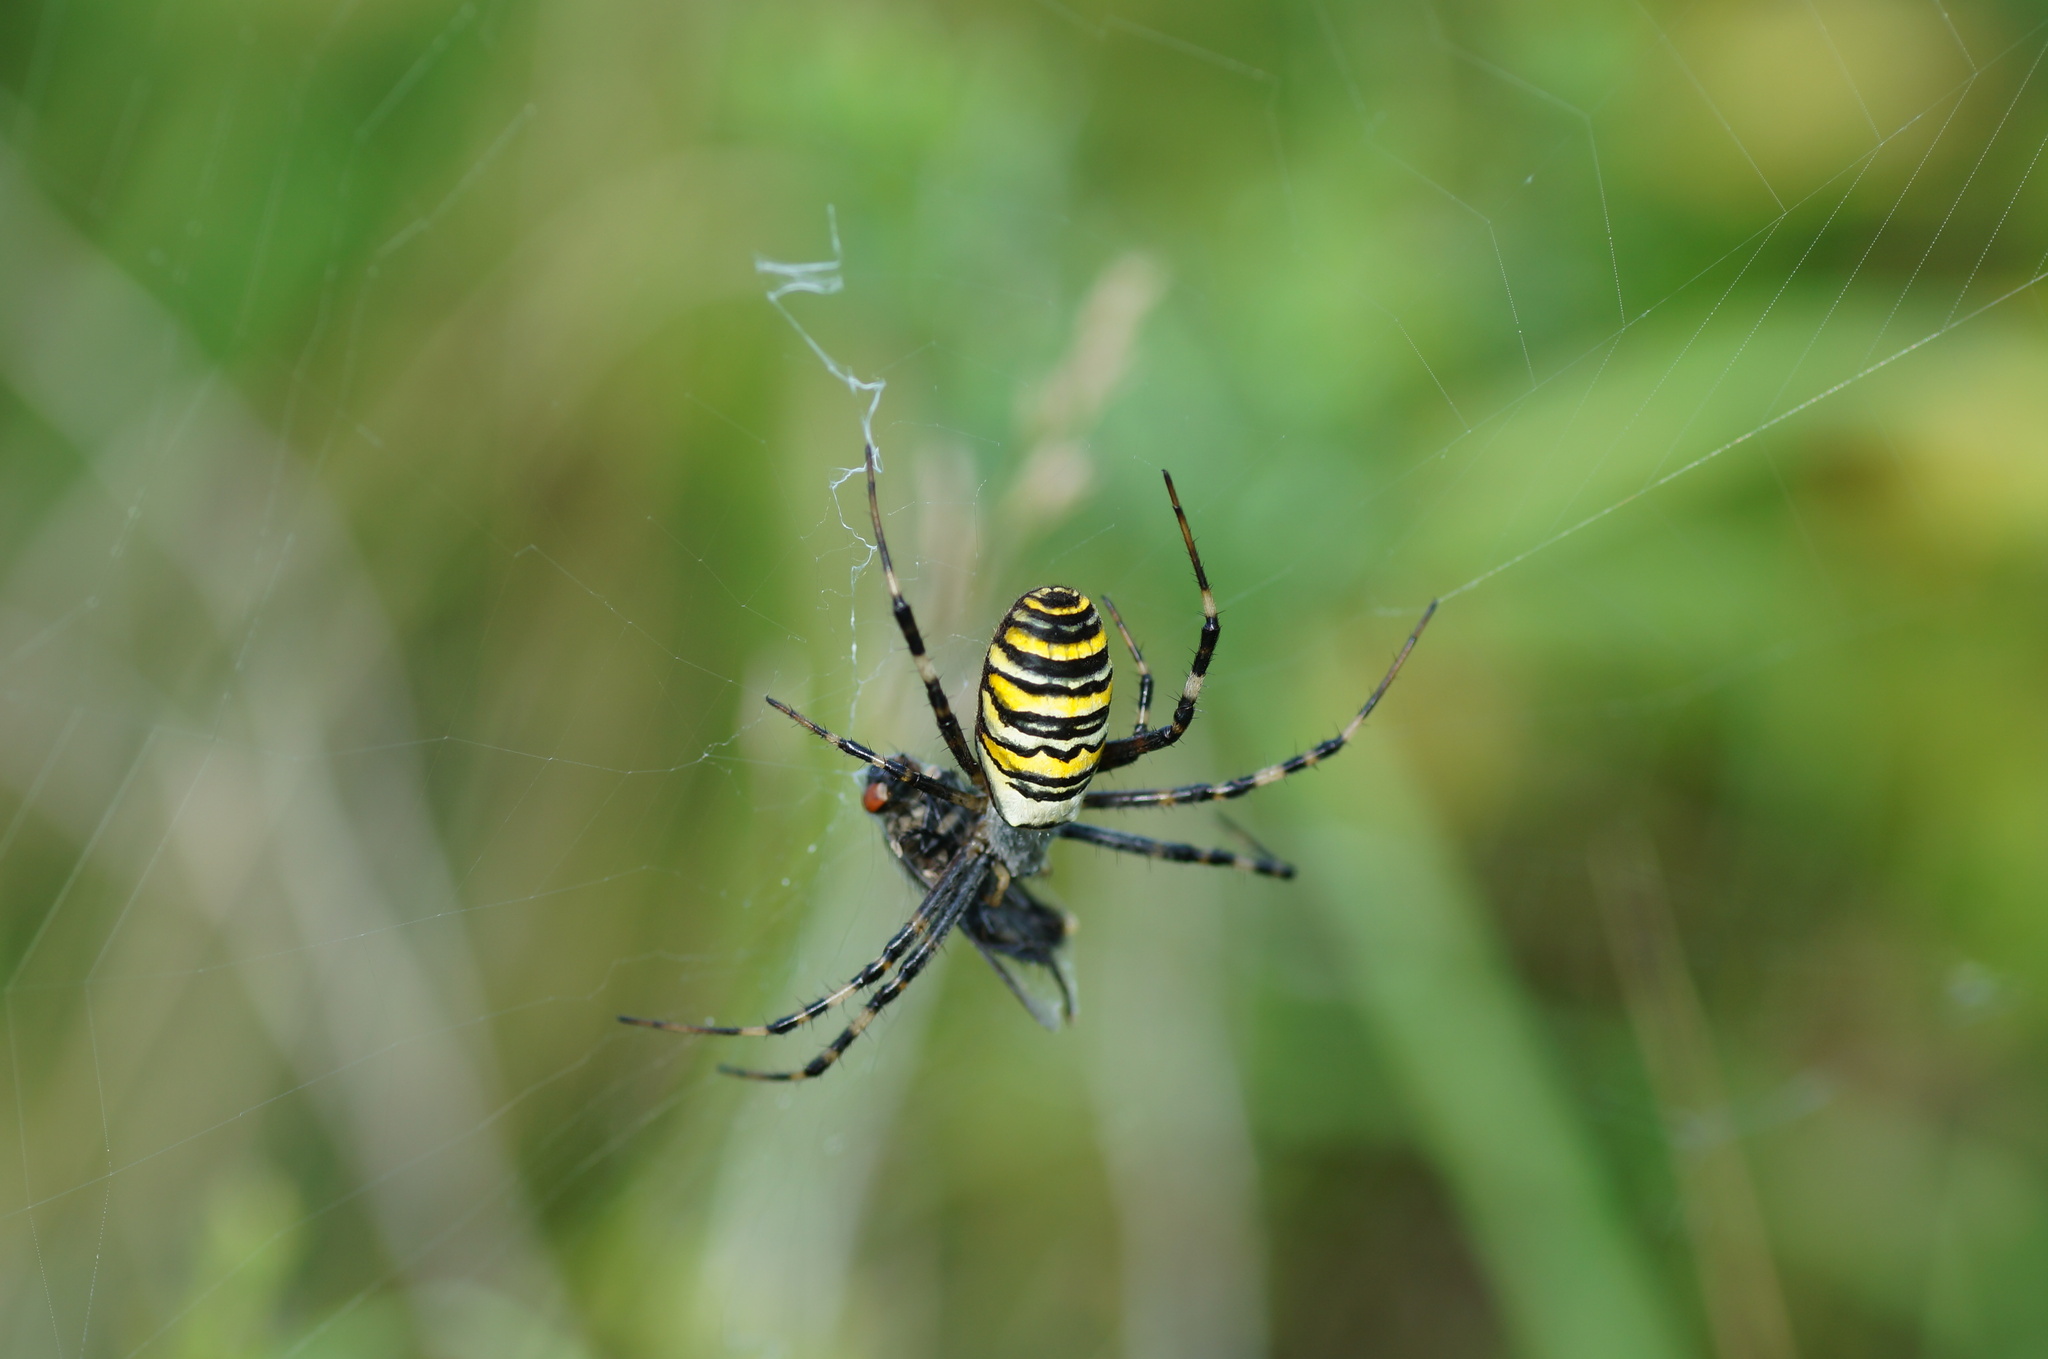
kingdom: Animalia
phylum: Arthropoda
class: Arachnida
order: Araneae
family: Araneidae
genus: Argiope
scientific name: Argiope bruennichi
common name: Wasp spider
